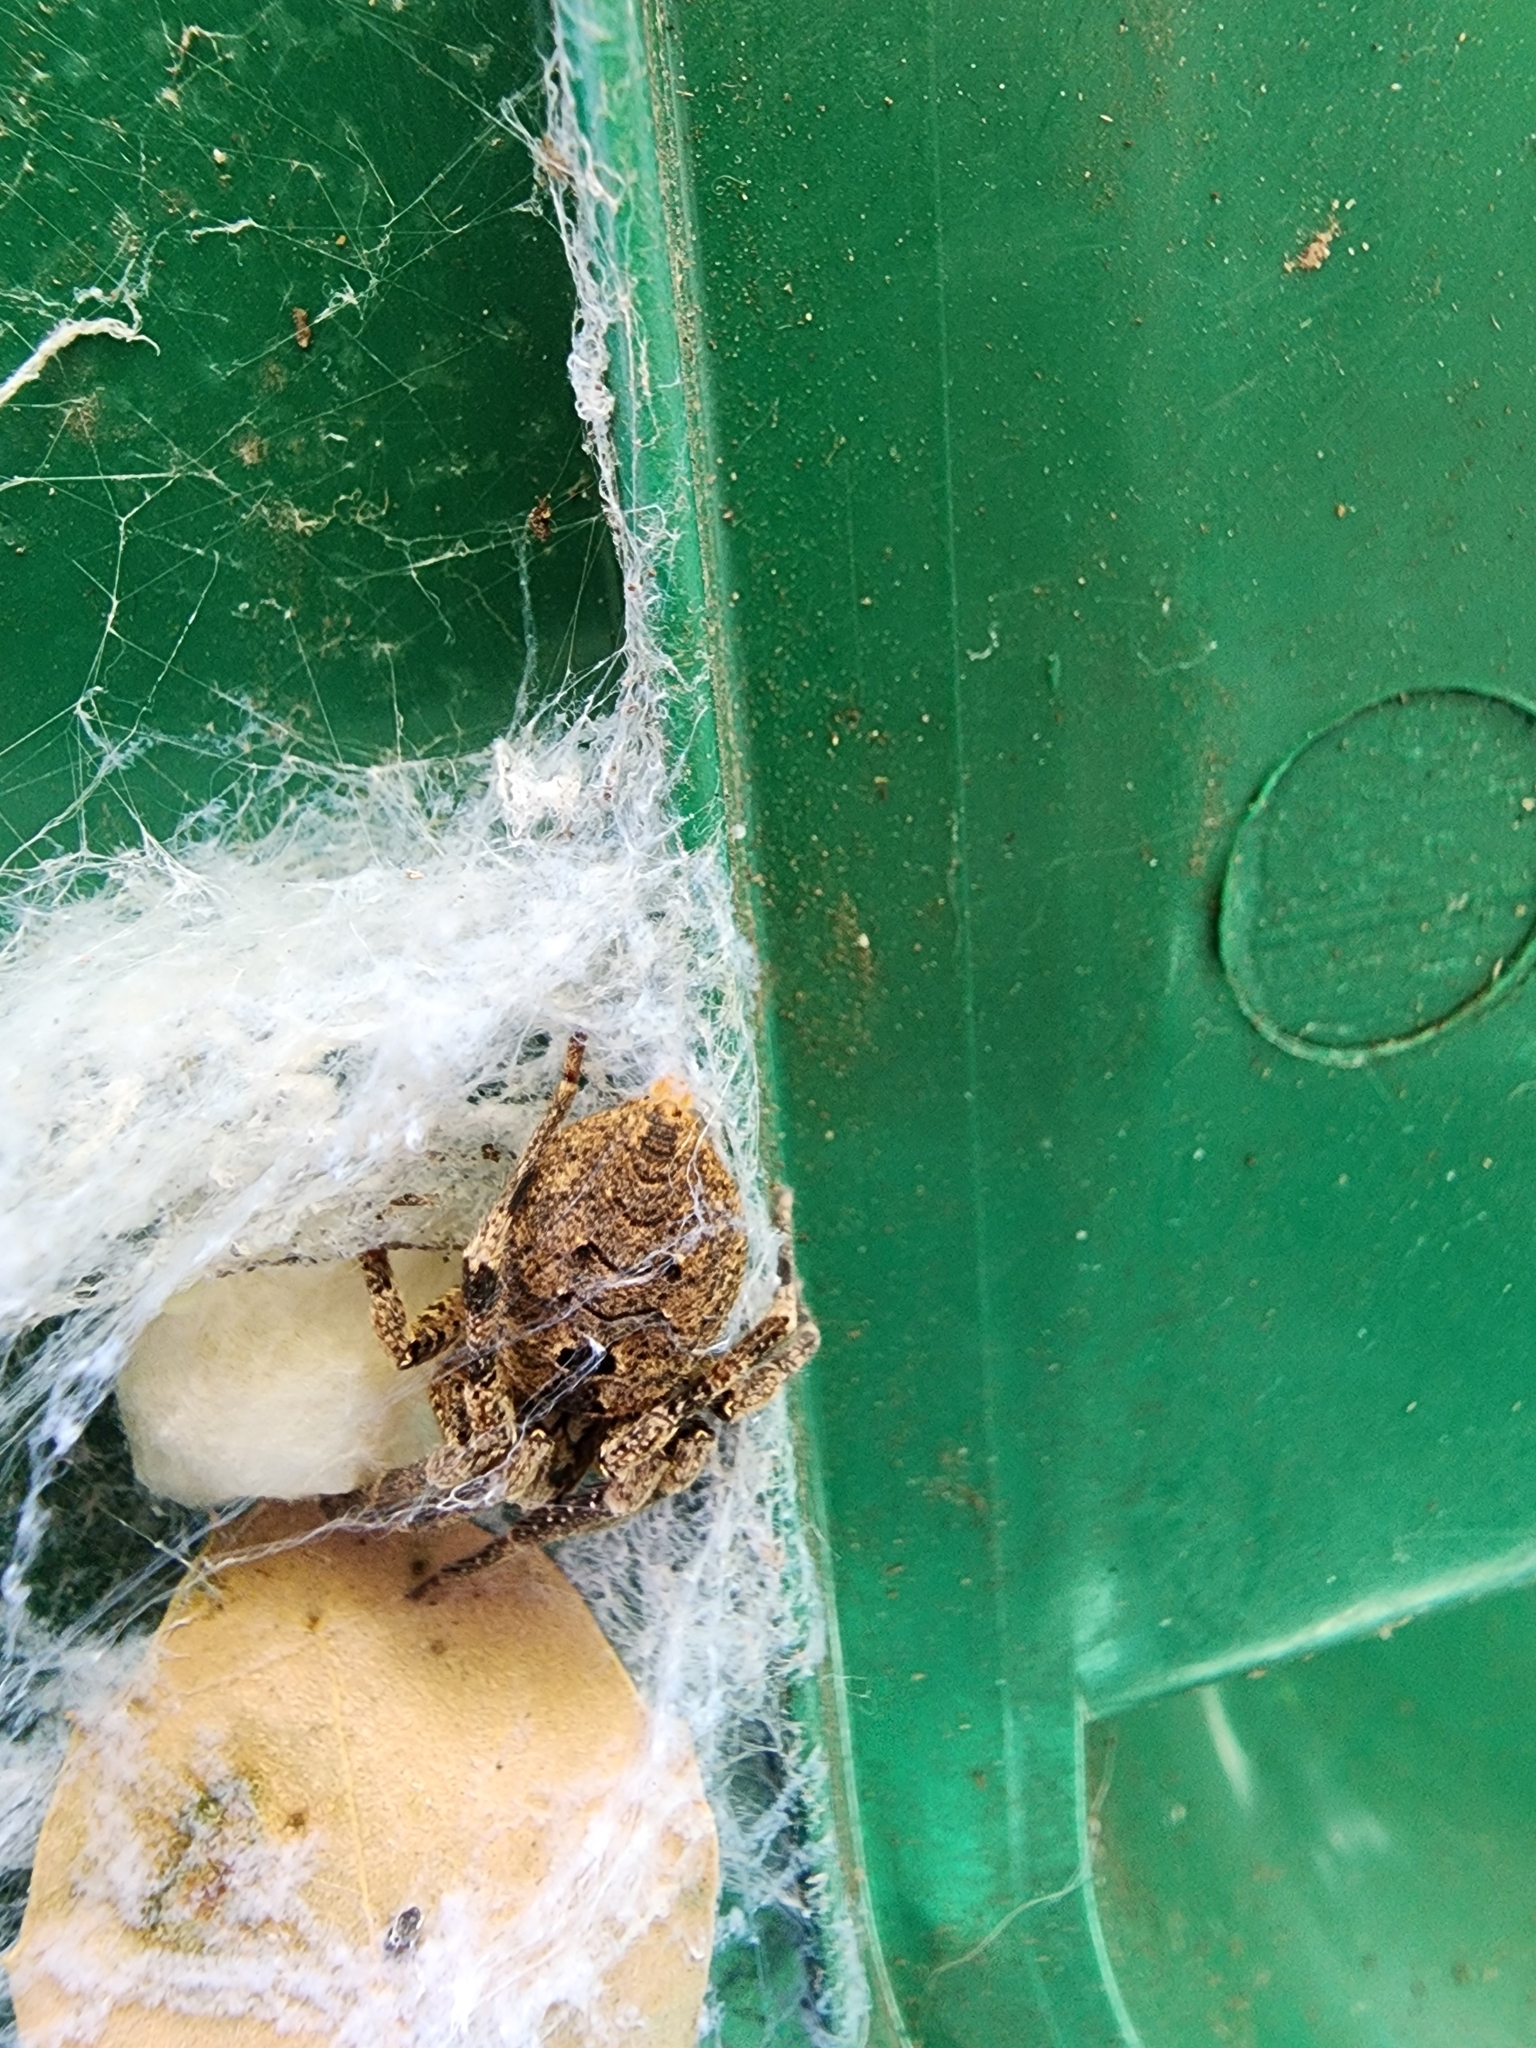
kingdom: Animalia
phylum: Arthropoda
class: Arachnida
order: Araneae
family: Zoropsidae
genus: Zoropsis
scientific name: Zoropsis spinimana
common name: Zoropsid spider
